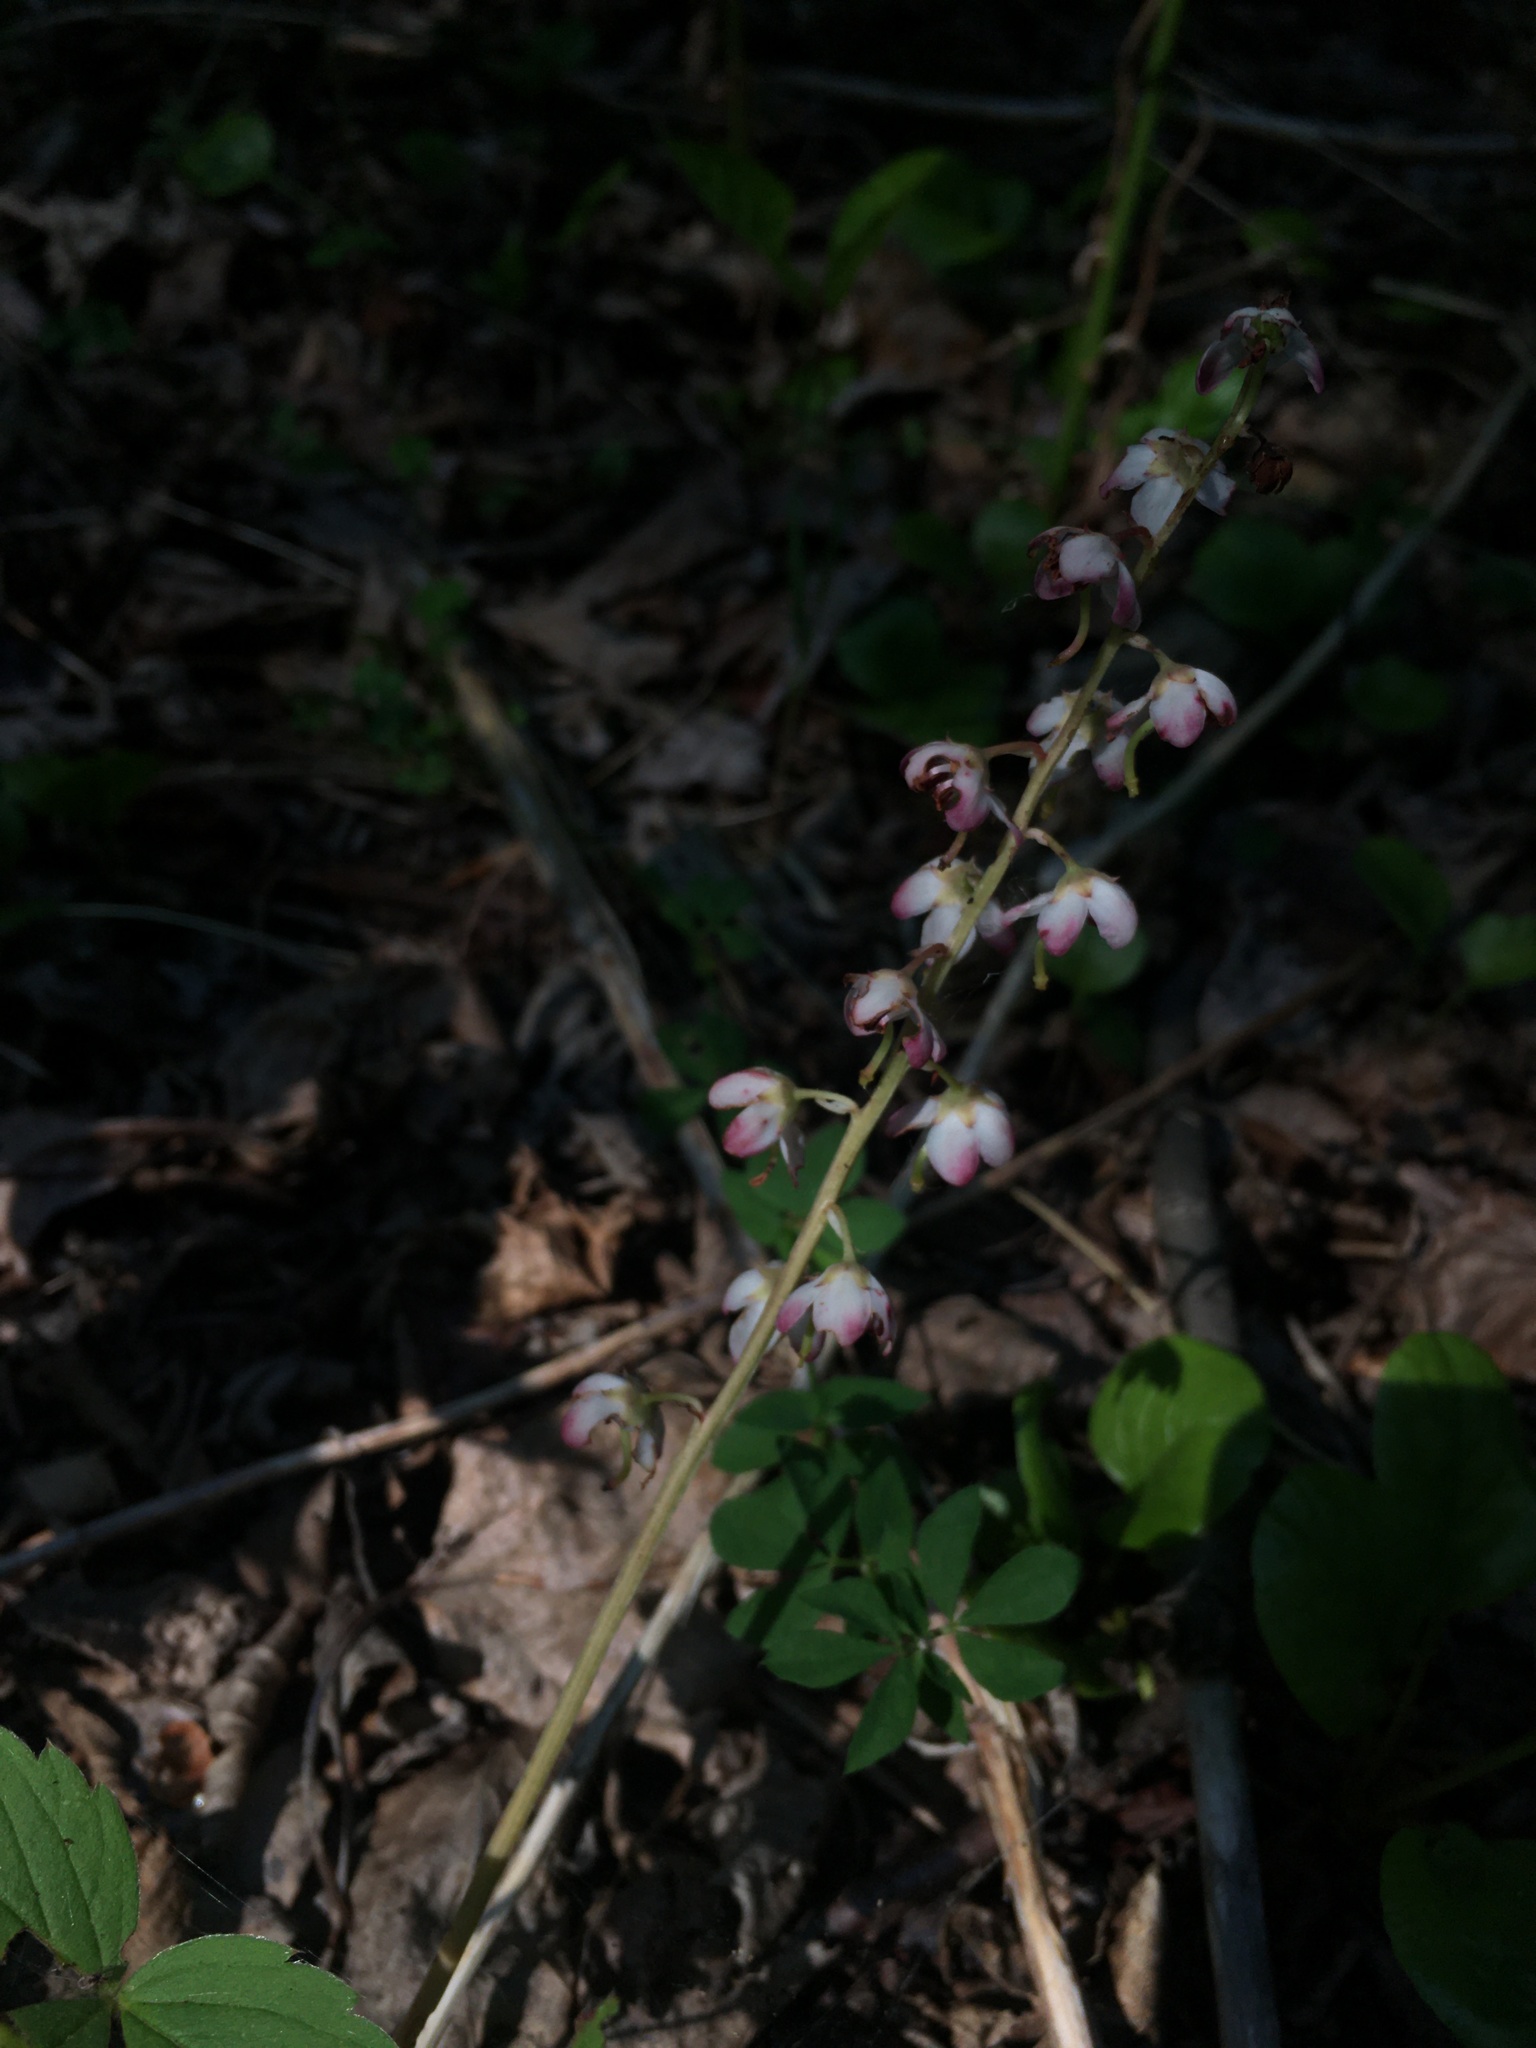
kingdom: Plantae
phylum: Tracheophyta
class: Magnoliopsida
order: Ericales
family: Ericaceae
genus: Pyrola
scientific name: Pyrola asarifolia
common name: Bog wintergreen
